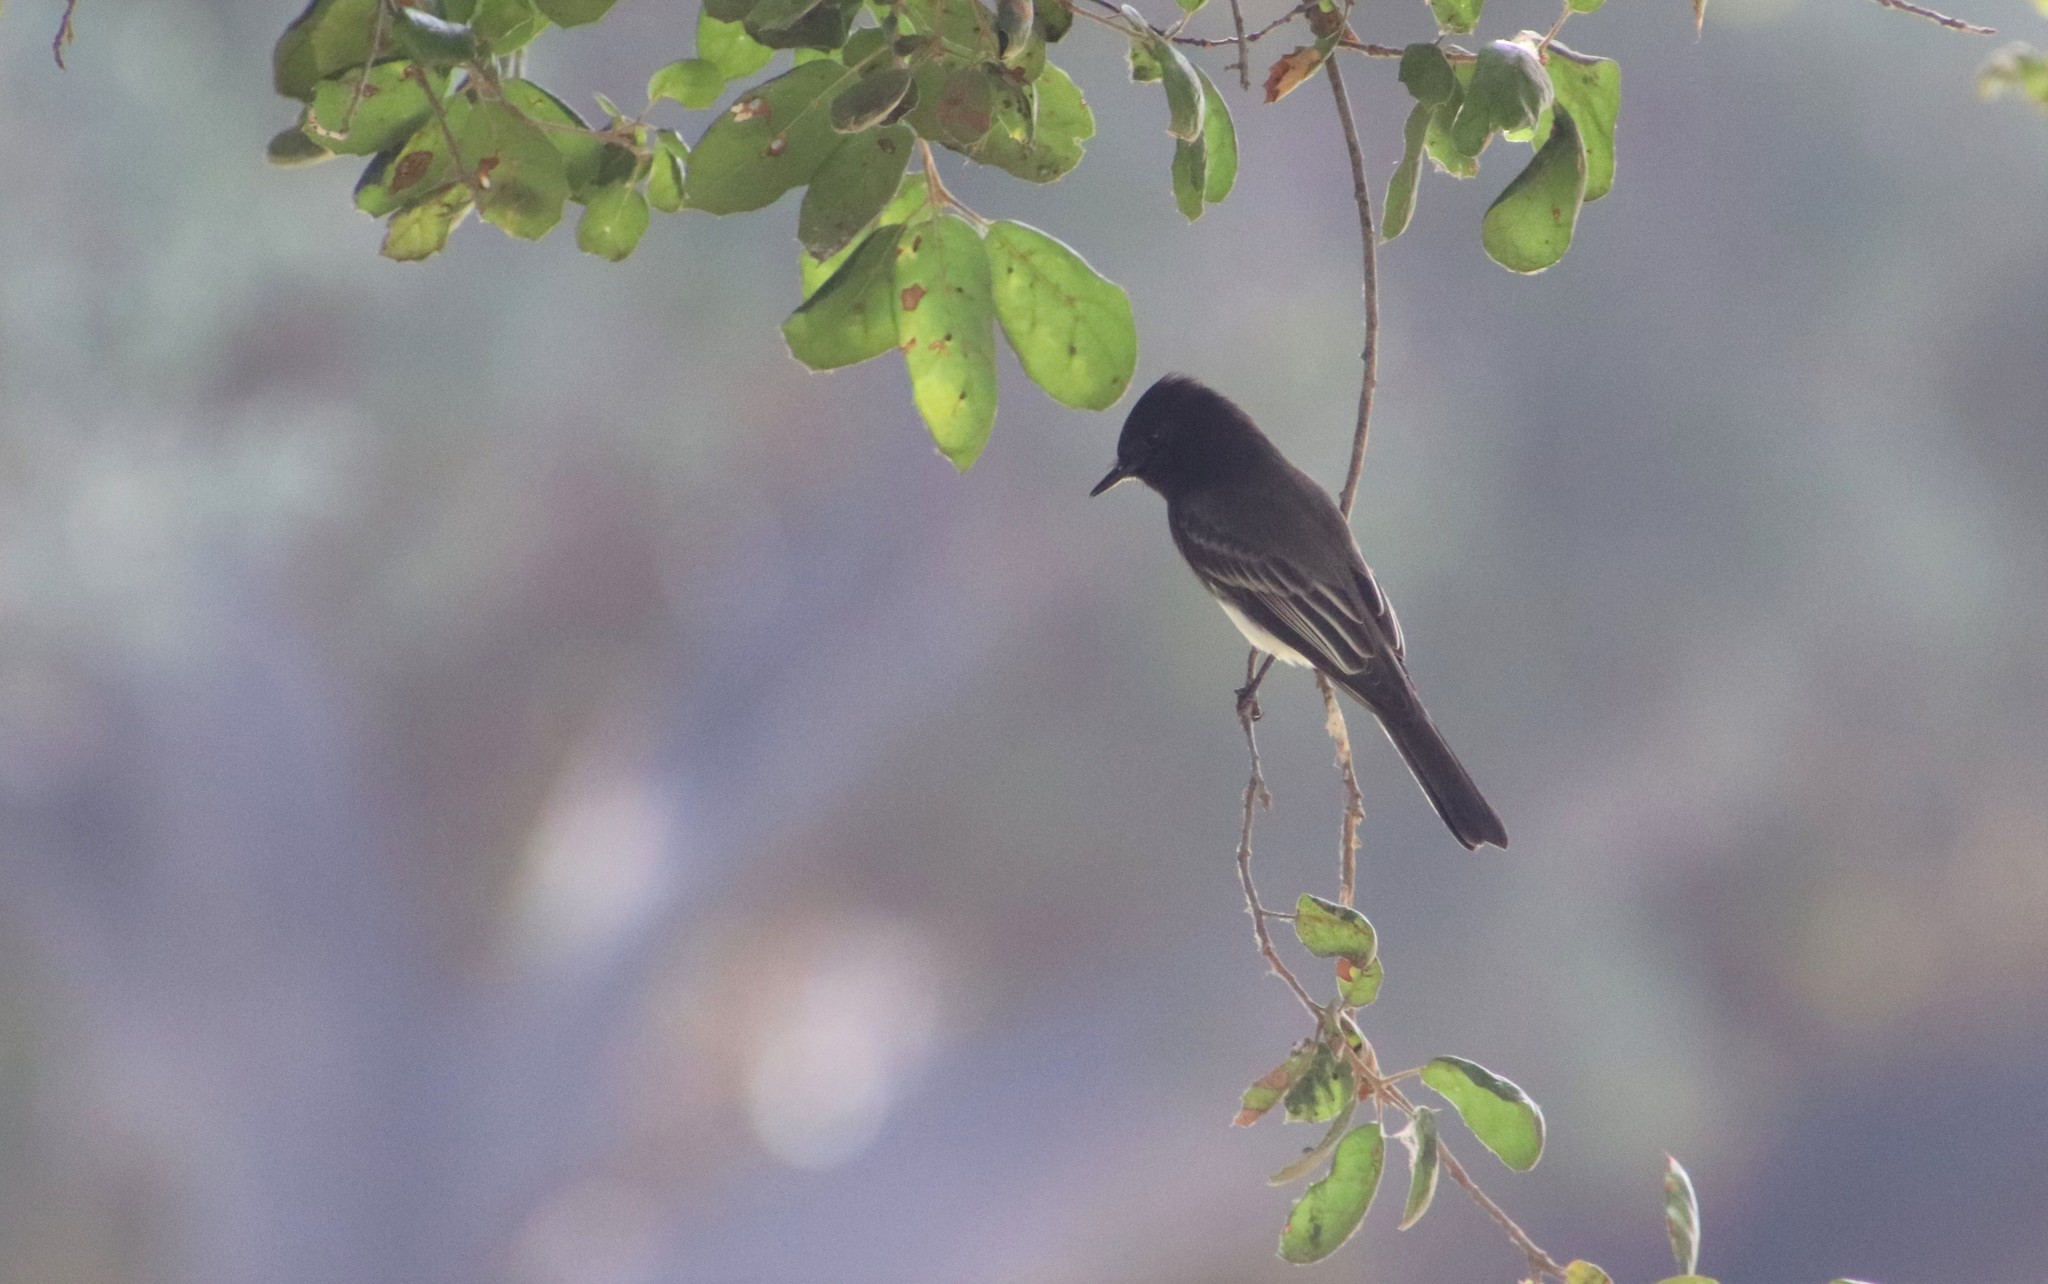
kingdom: Animalia
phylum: Chordata
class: Aves
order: Passeriformes
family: Tyrannidae
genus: Sayornis
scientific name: Sayornis nigricans
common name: Black phoebe
